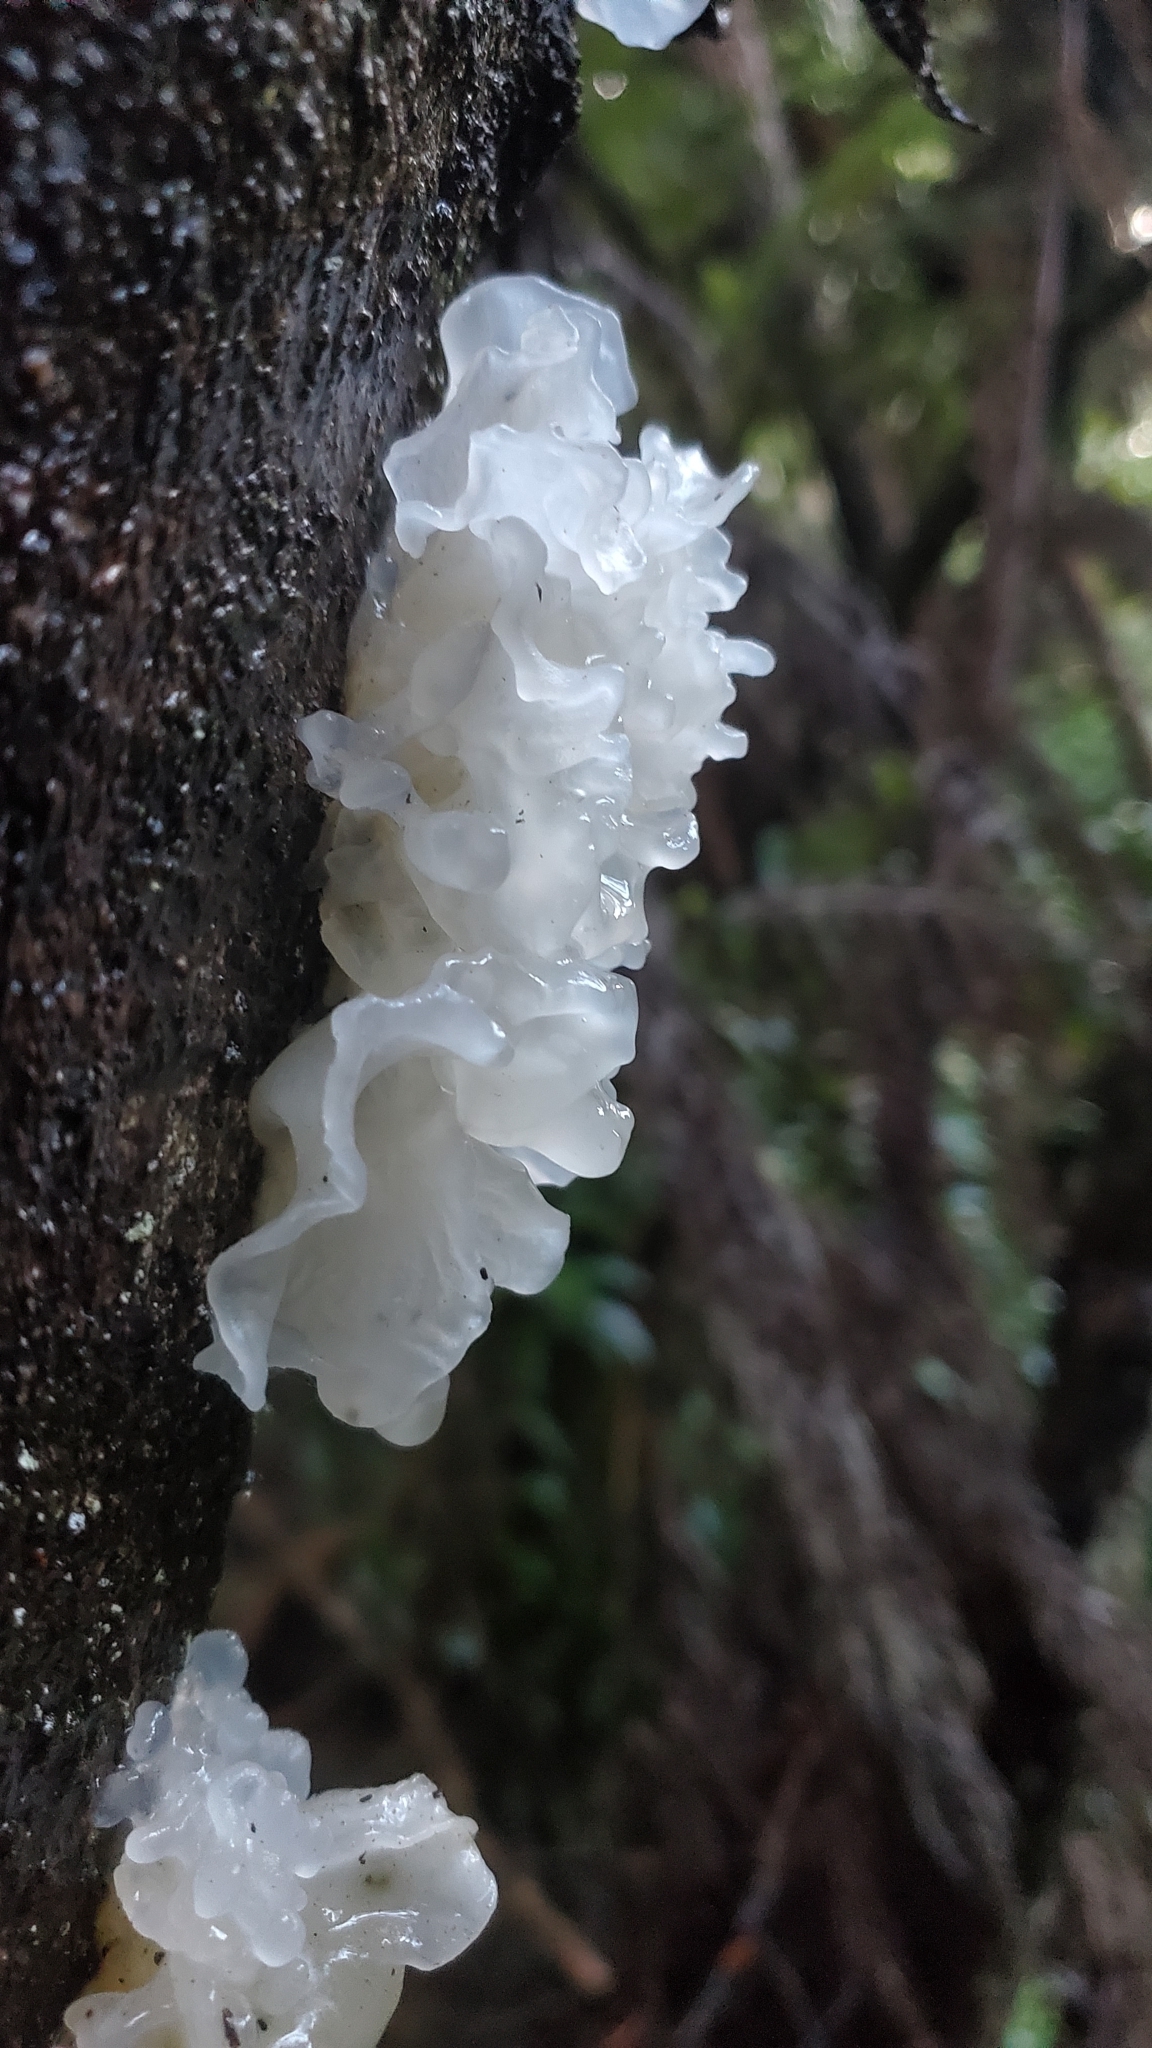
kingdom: Fungi
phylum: Basidiomycota
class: Tremellomycetes
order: Tremellales
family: Tremellaceae
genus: Tremella
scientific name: Tremella fuciformis
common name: Snow fungus
